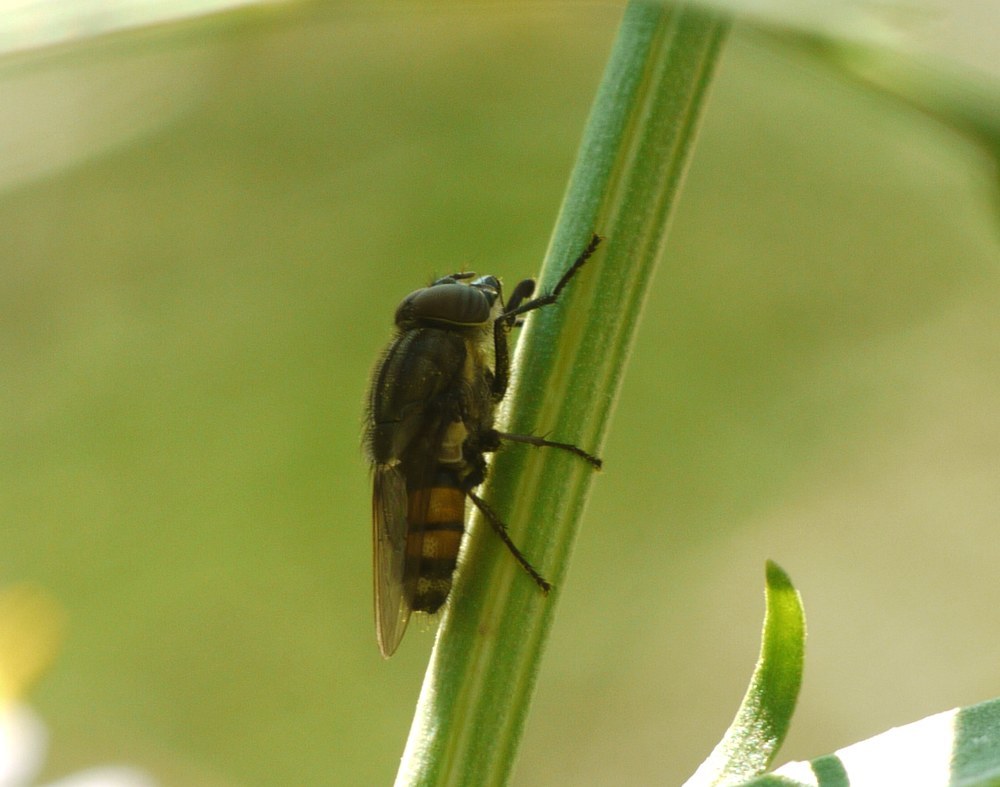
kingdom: Animalia
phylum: Arthropoda
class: Insecta
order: Diptera
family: Calliphoridae
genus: Stomorhina
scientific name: Stomorhina lunata
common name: Locust blowfly
